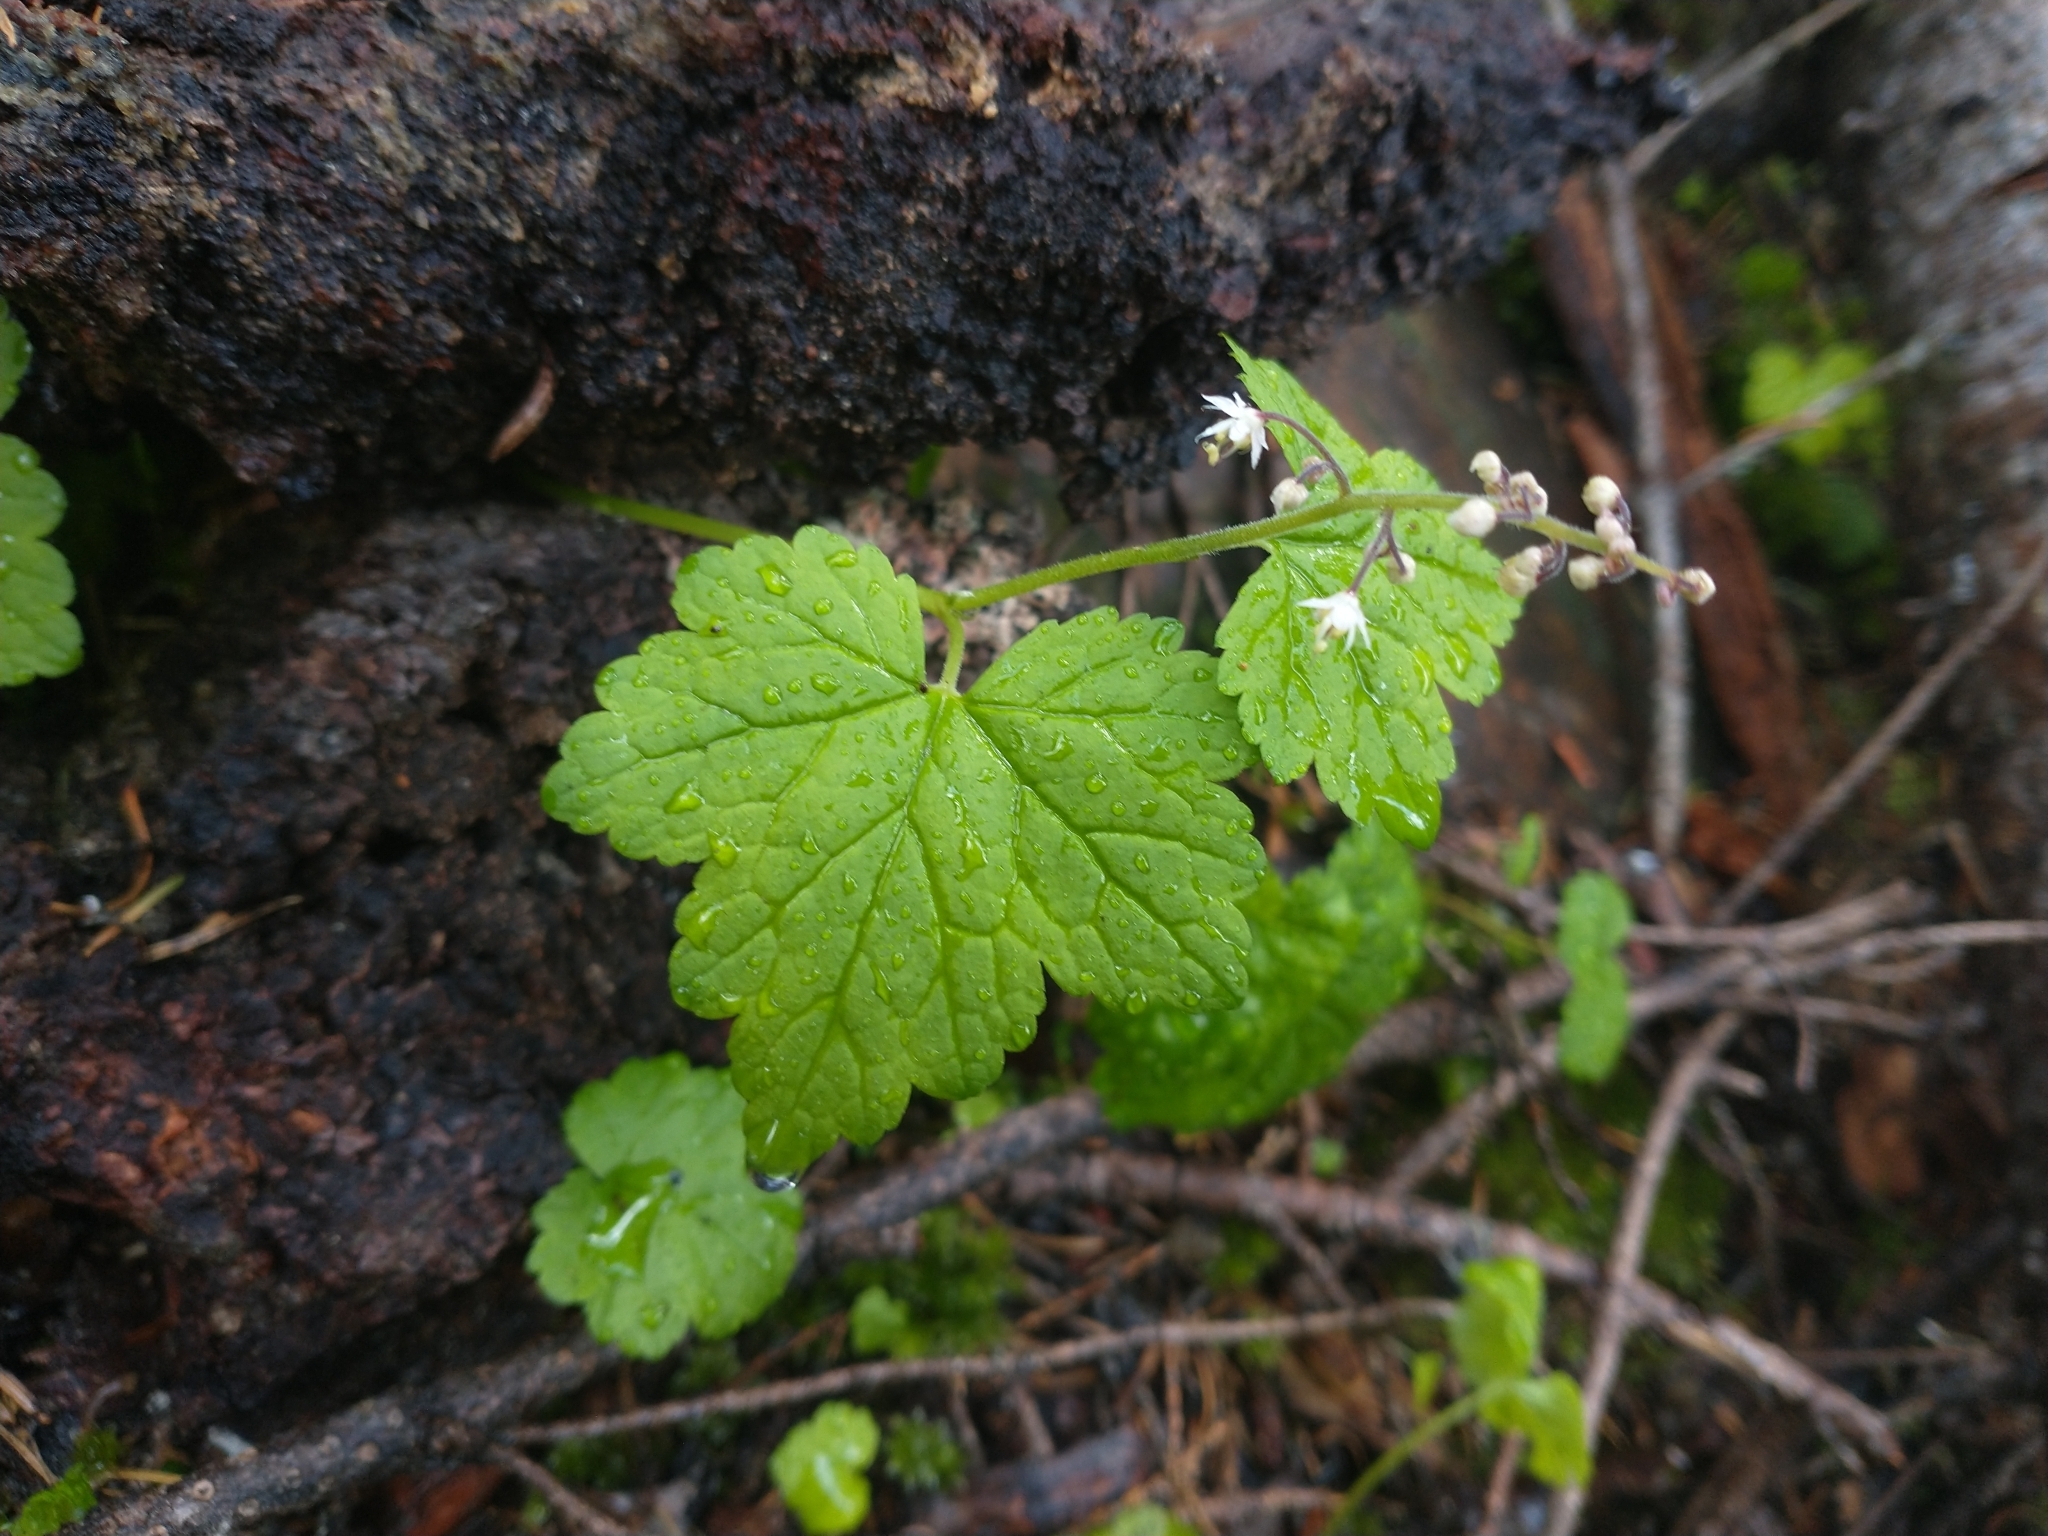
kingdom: Plantae
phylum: Tracheophyta
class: Magnoliopsida
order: Saxifragales
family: Saxifragaceae
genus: Tiarella
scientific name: Tiarella trifoliata
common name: Sugar-scoop
